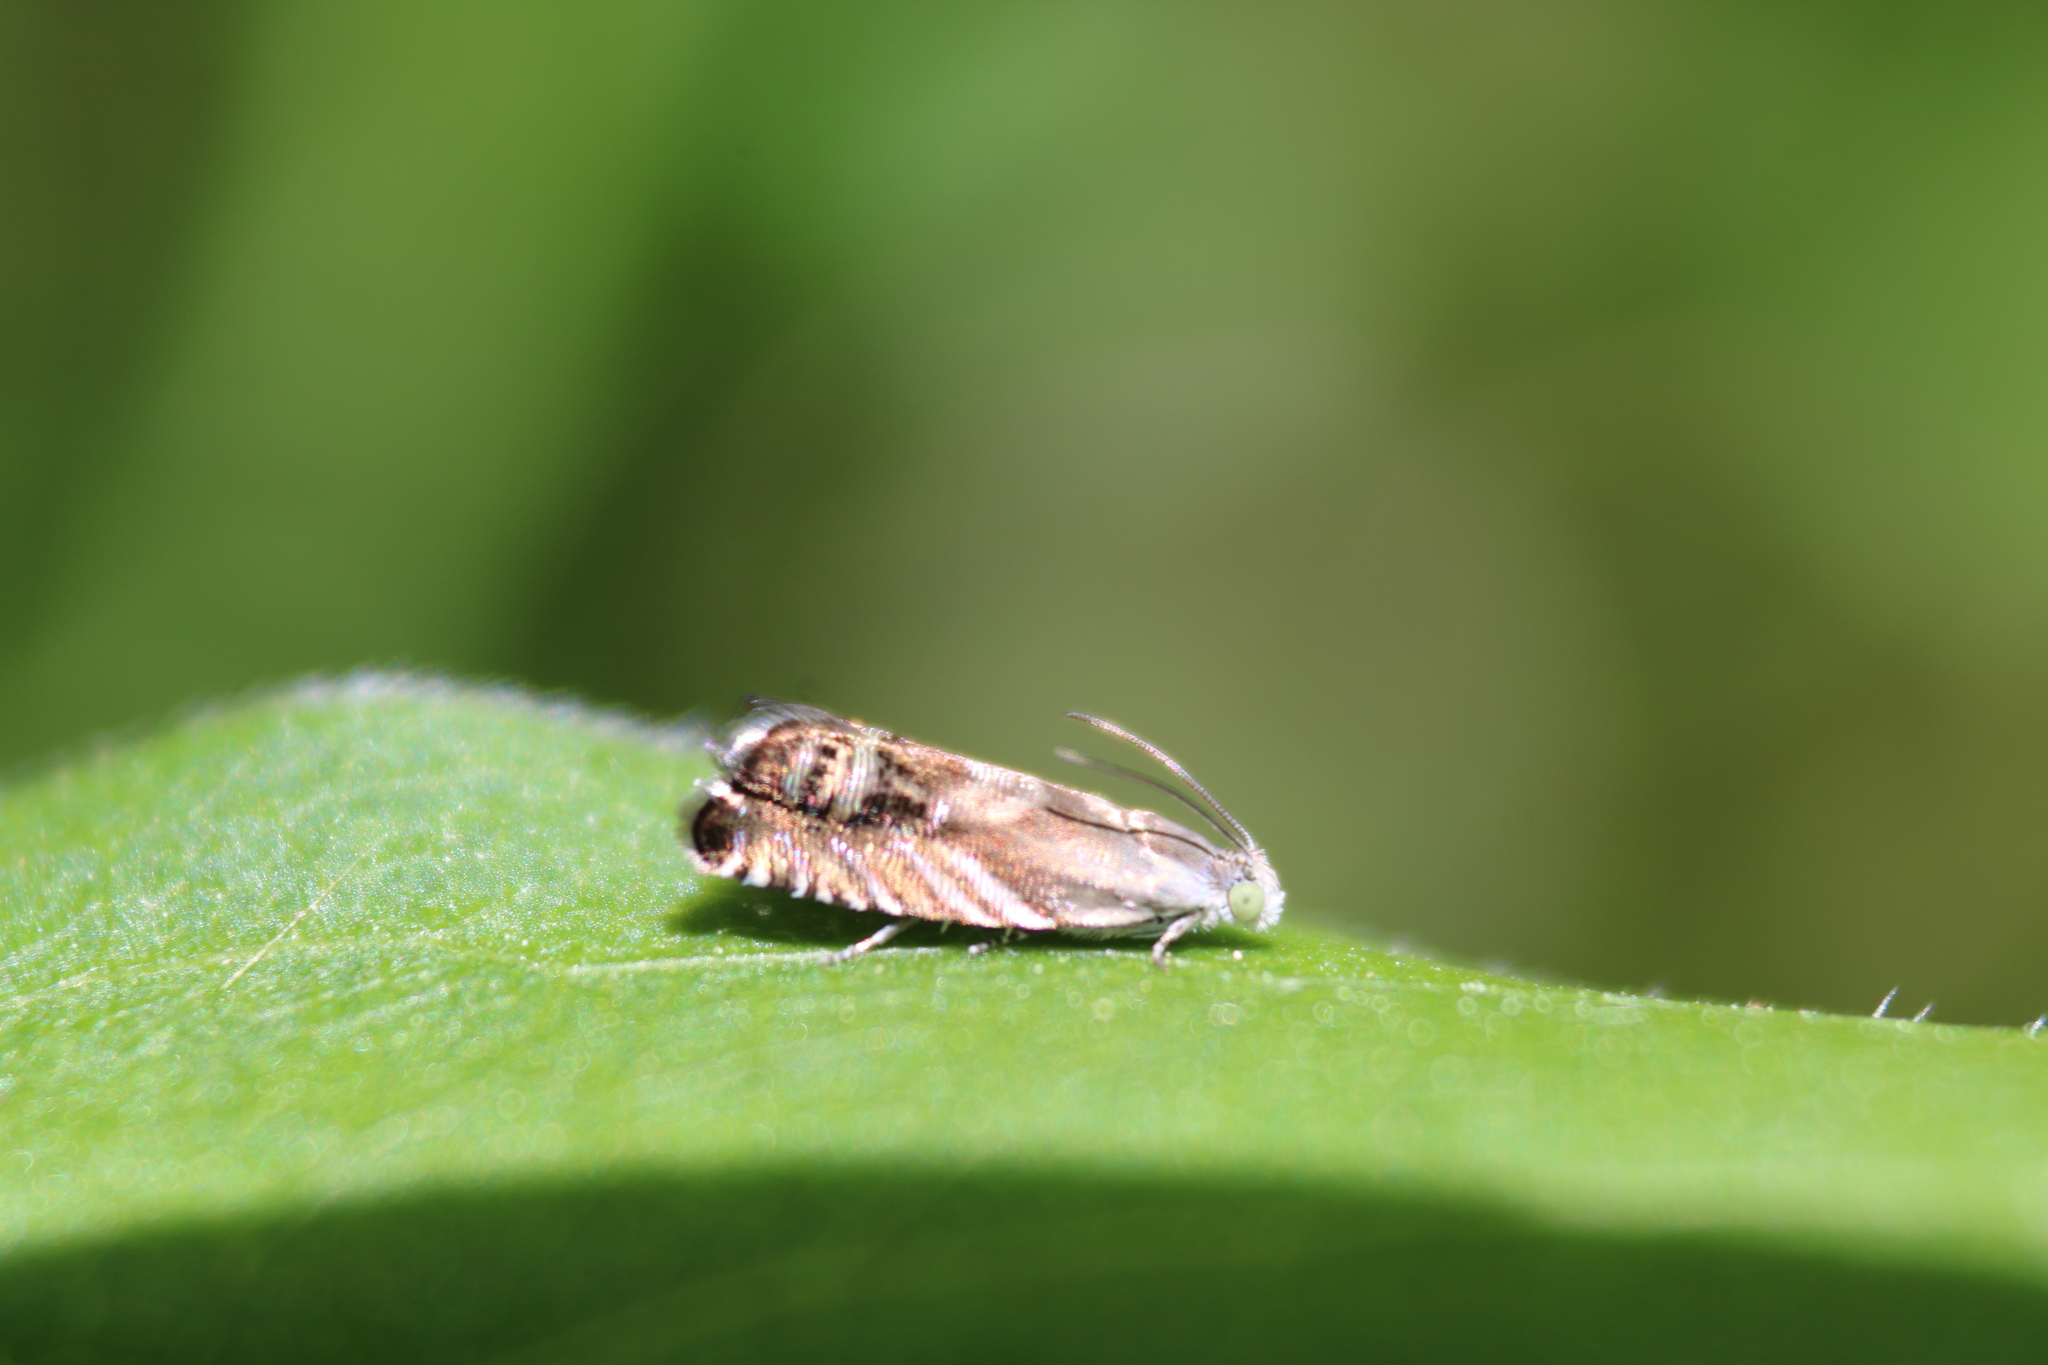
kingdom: Animalia
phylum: Arthropoda
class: Insecta
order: Lepidoptera
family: Tortricidae
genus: Grapholita
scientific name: Grapholita interstinctana
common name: Clover head caterpillar moth
